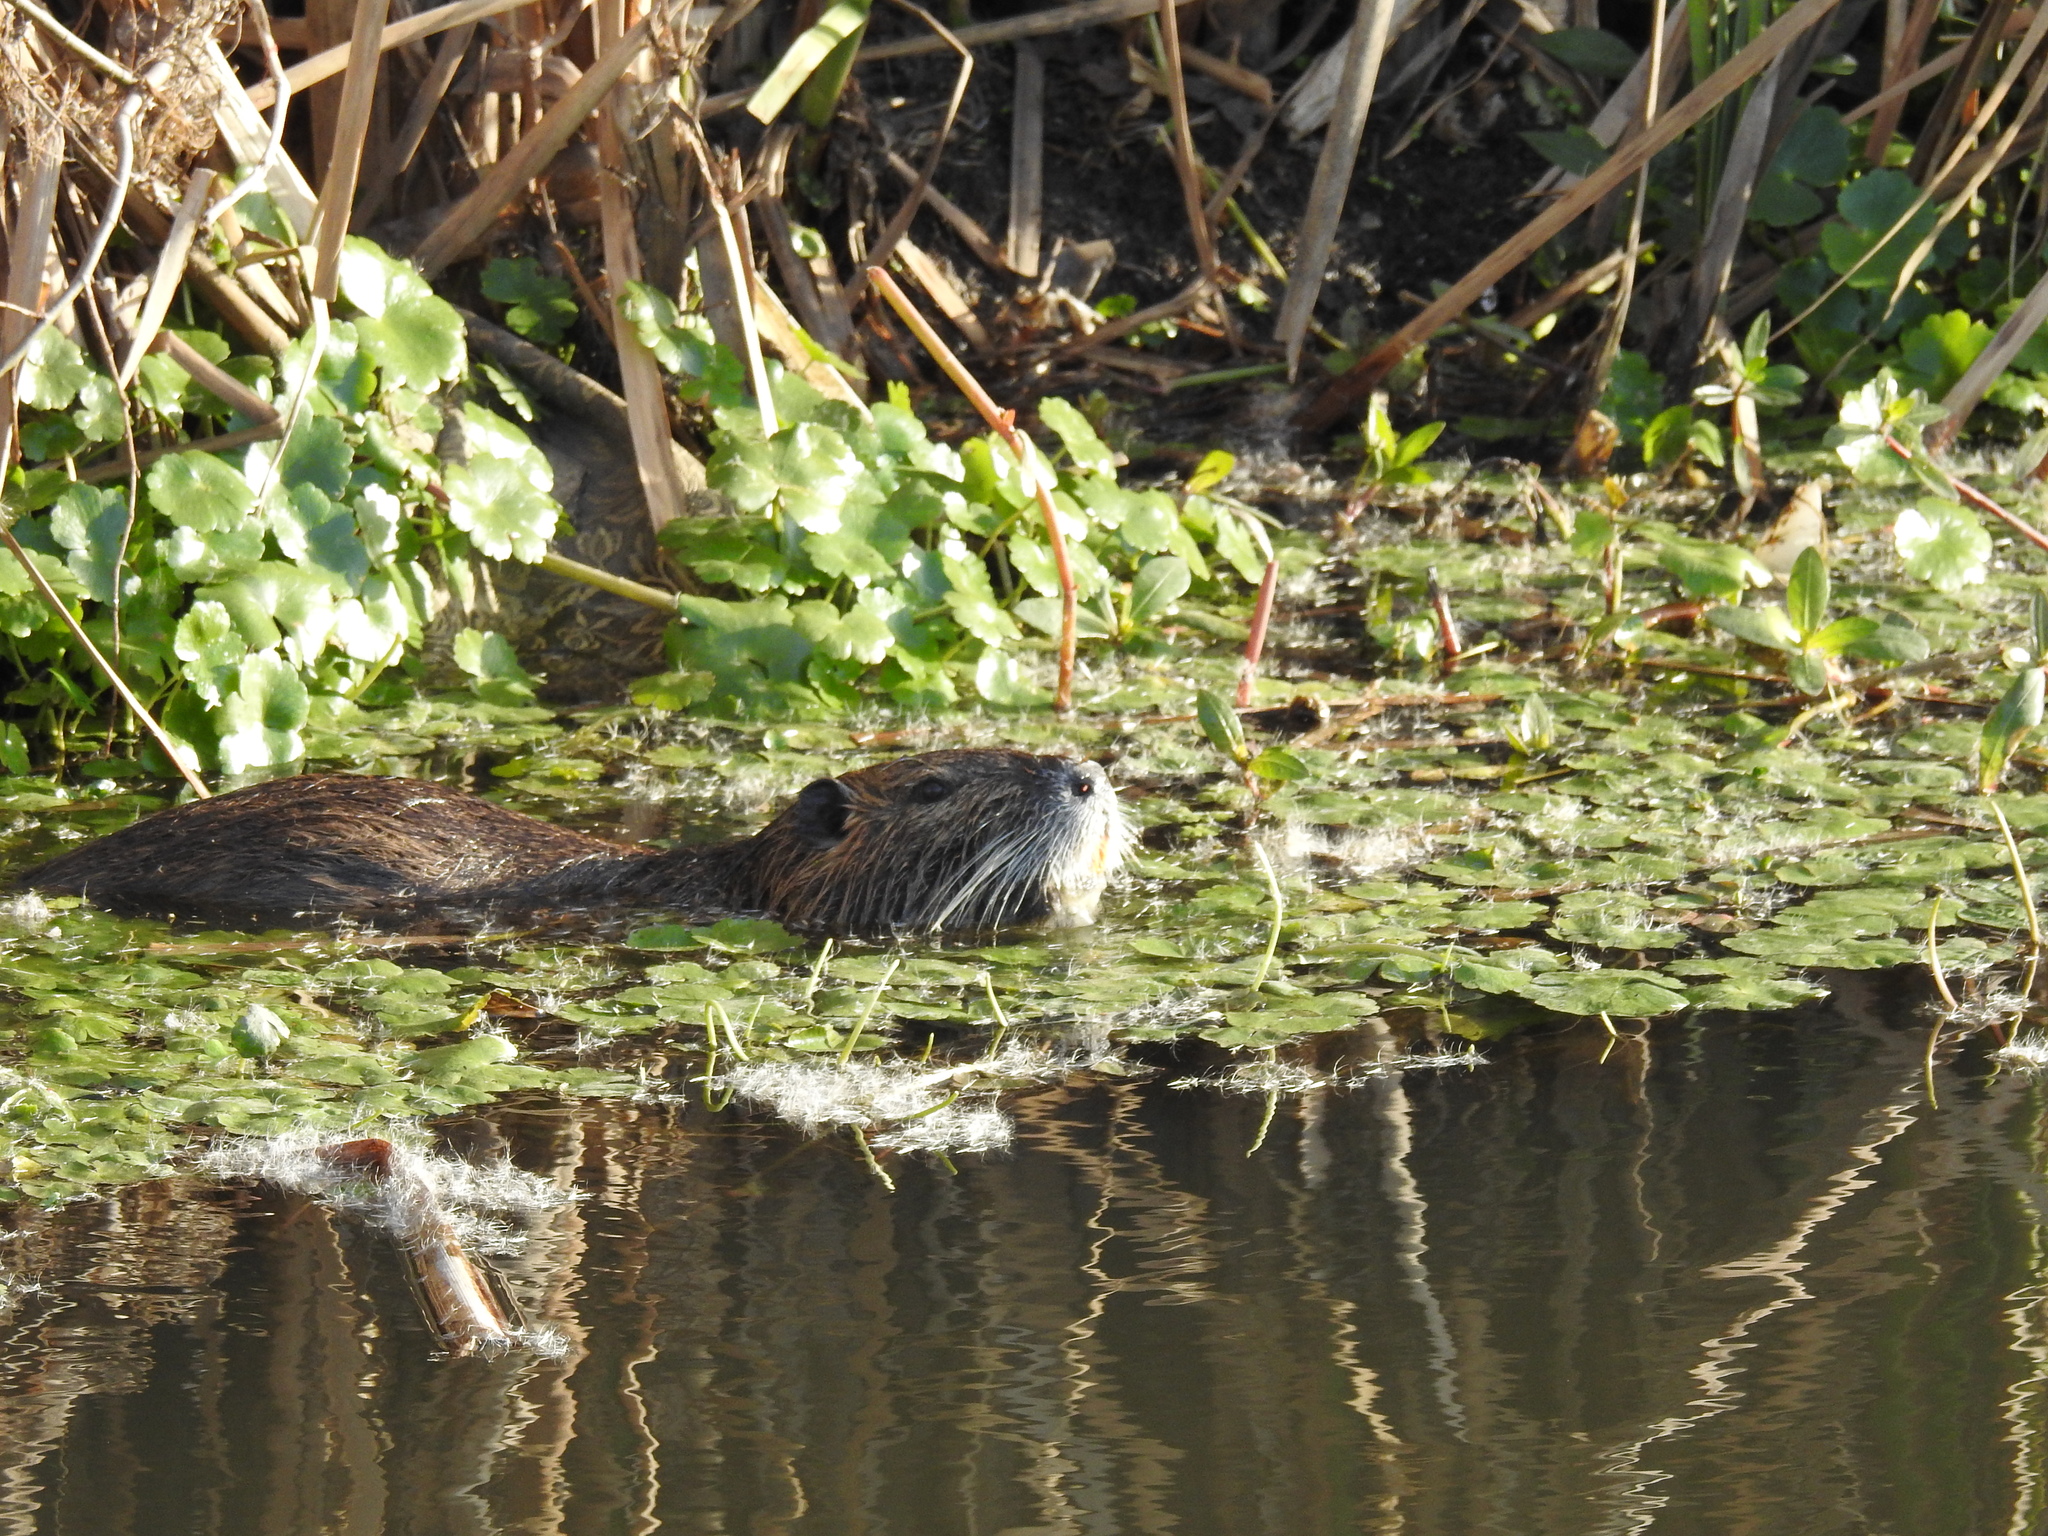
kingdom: Animalia
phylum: Chordata
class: Mammalia
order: Rodentia
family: Myocastoridae
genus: Myocastor
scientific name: Myocastor coypus
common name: Coypu
